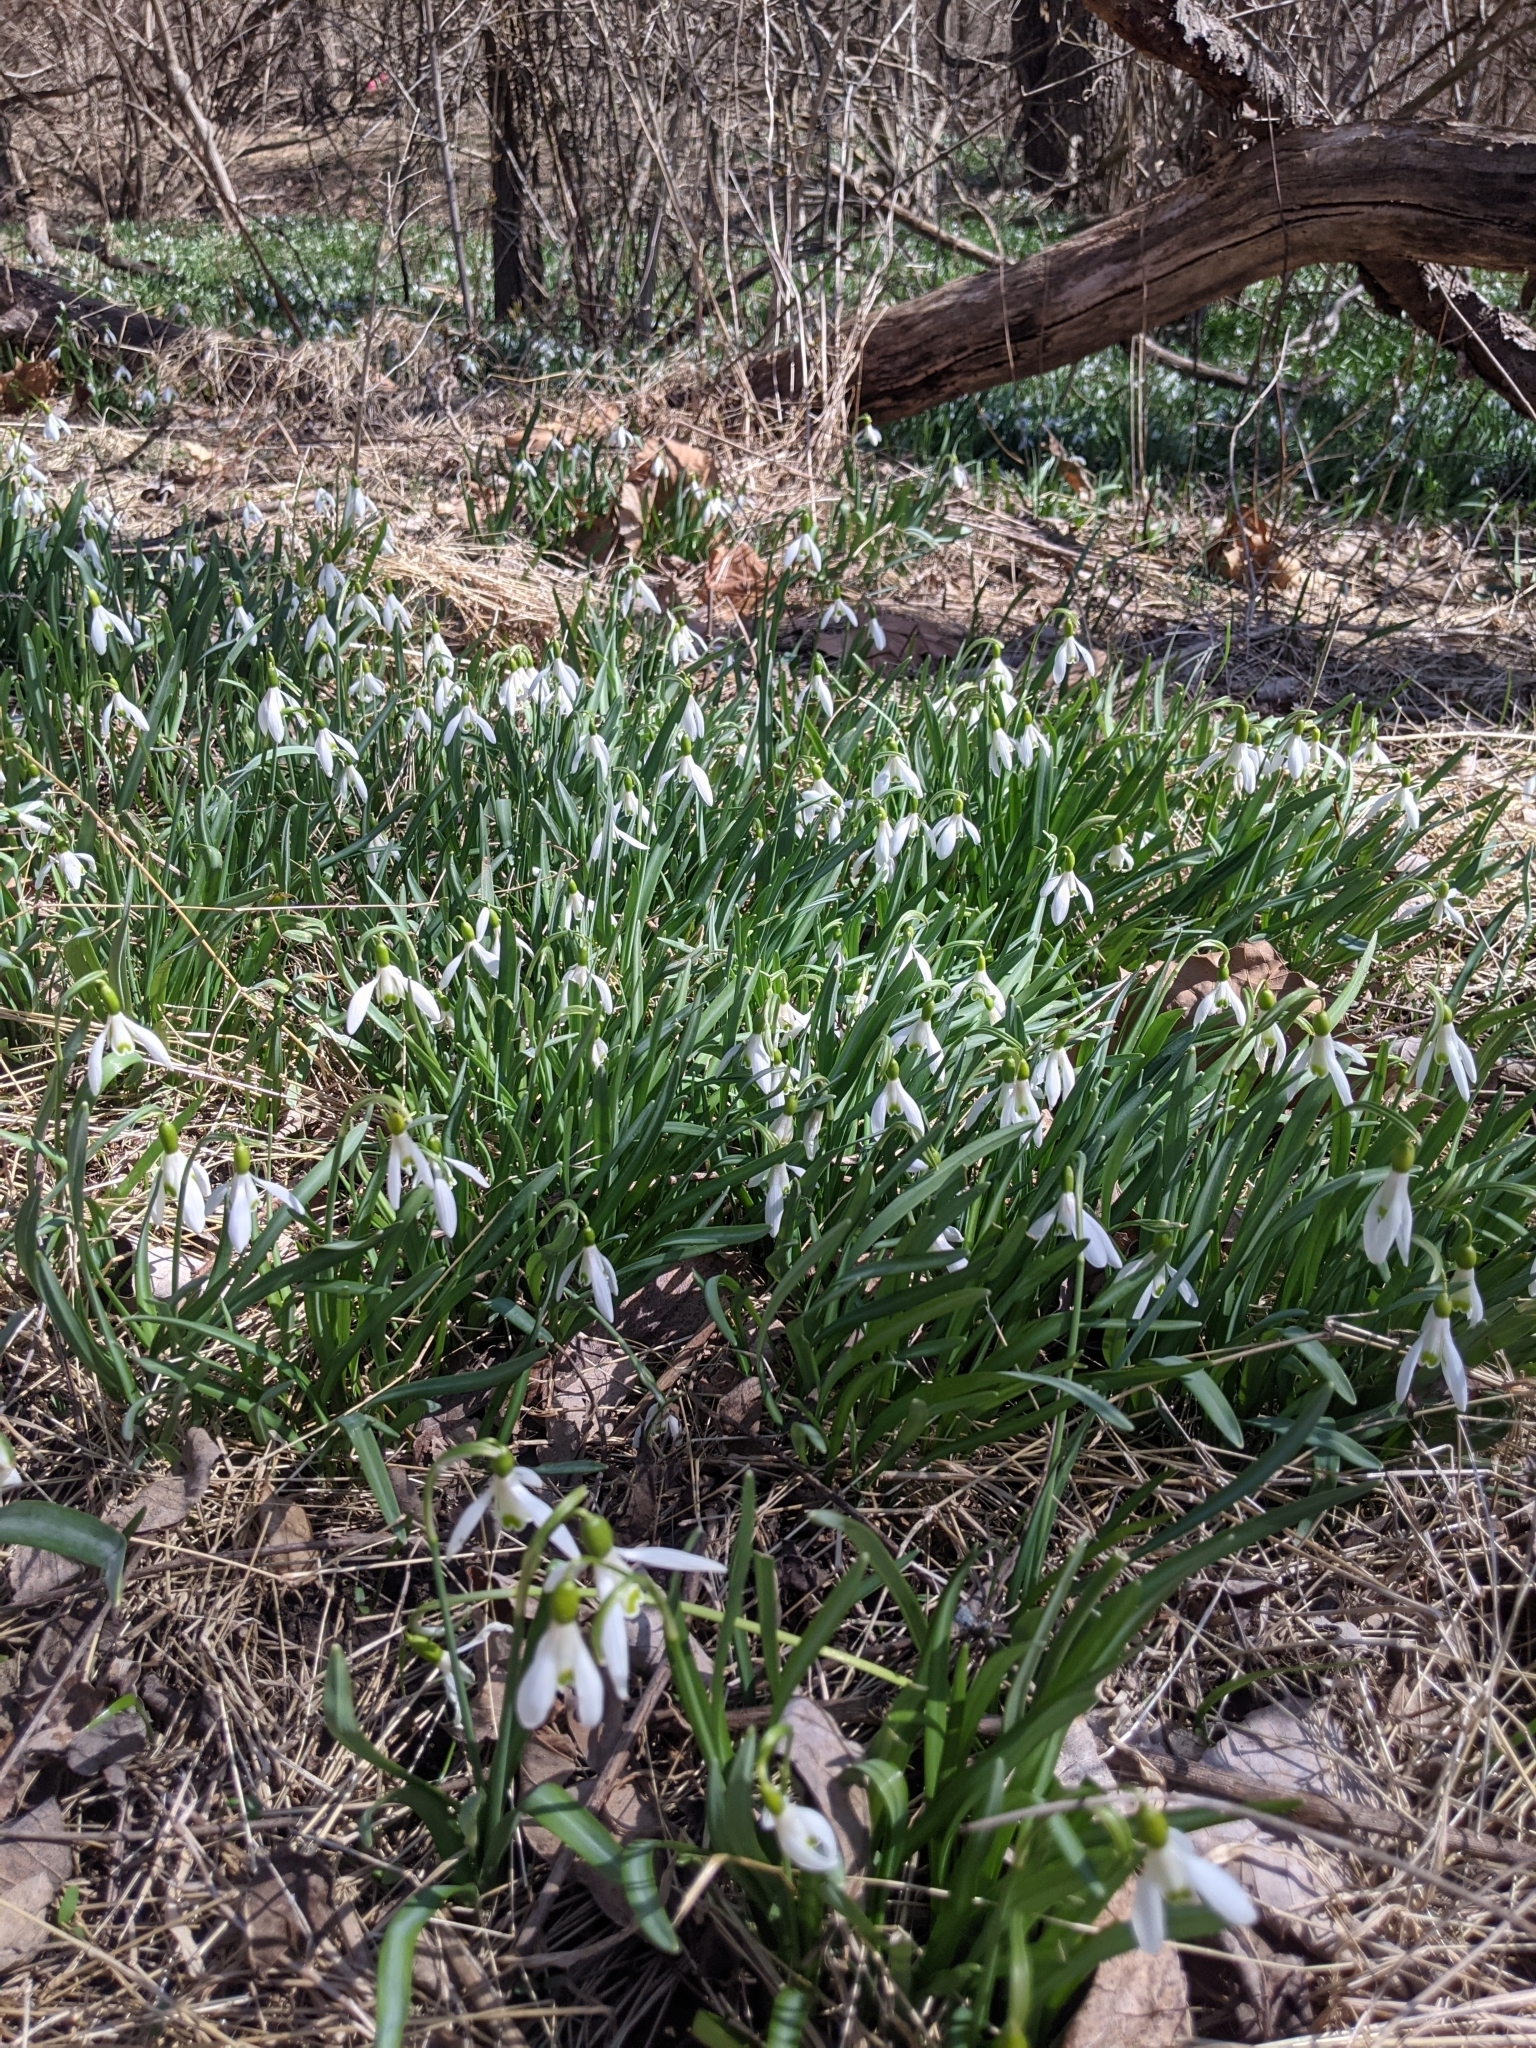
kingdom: Plantae
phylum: Tracheophyta
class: Liliopsida
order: Asparagales
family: Amaryllidaceae
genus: Galanthus
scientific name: Galanthus nivalis
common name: Snowdrop
